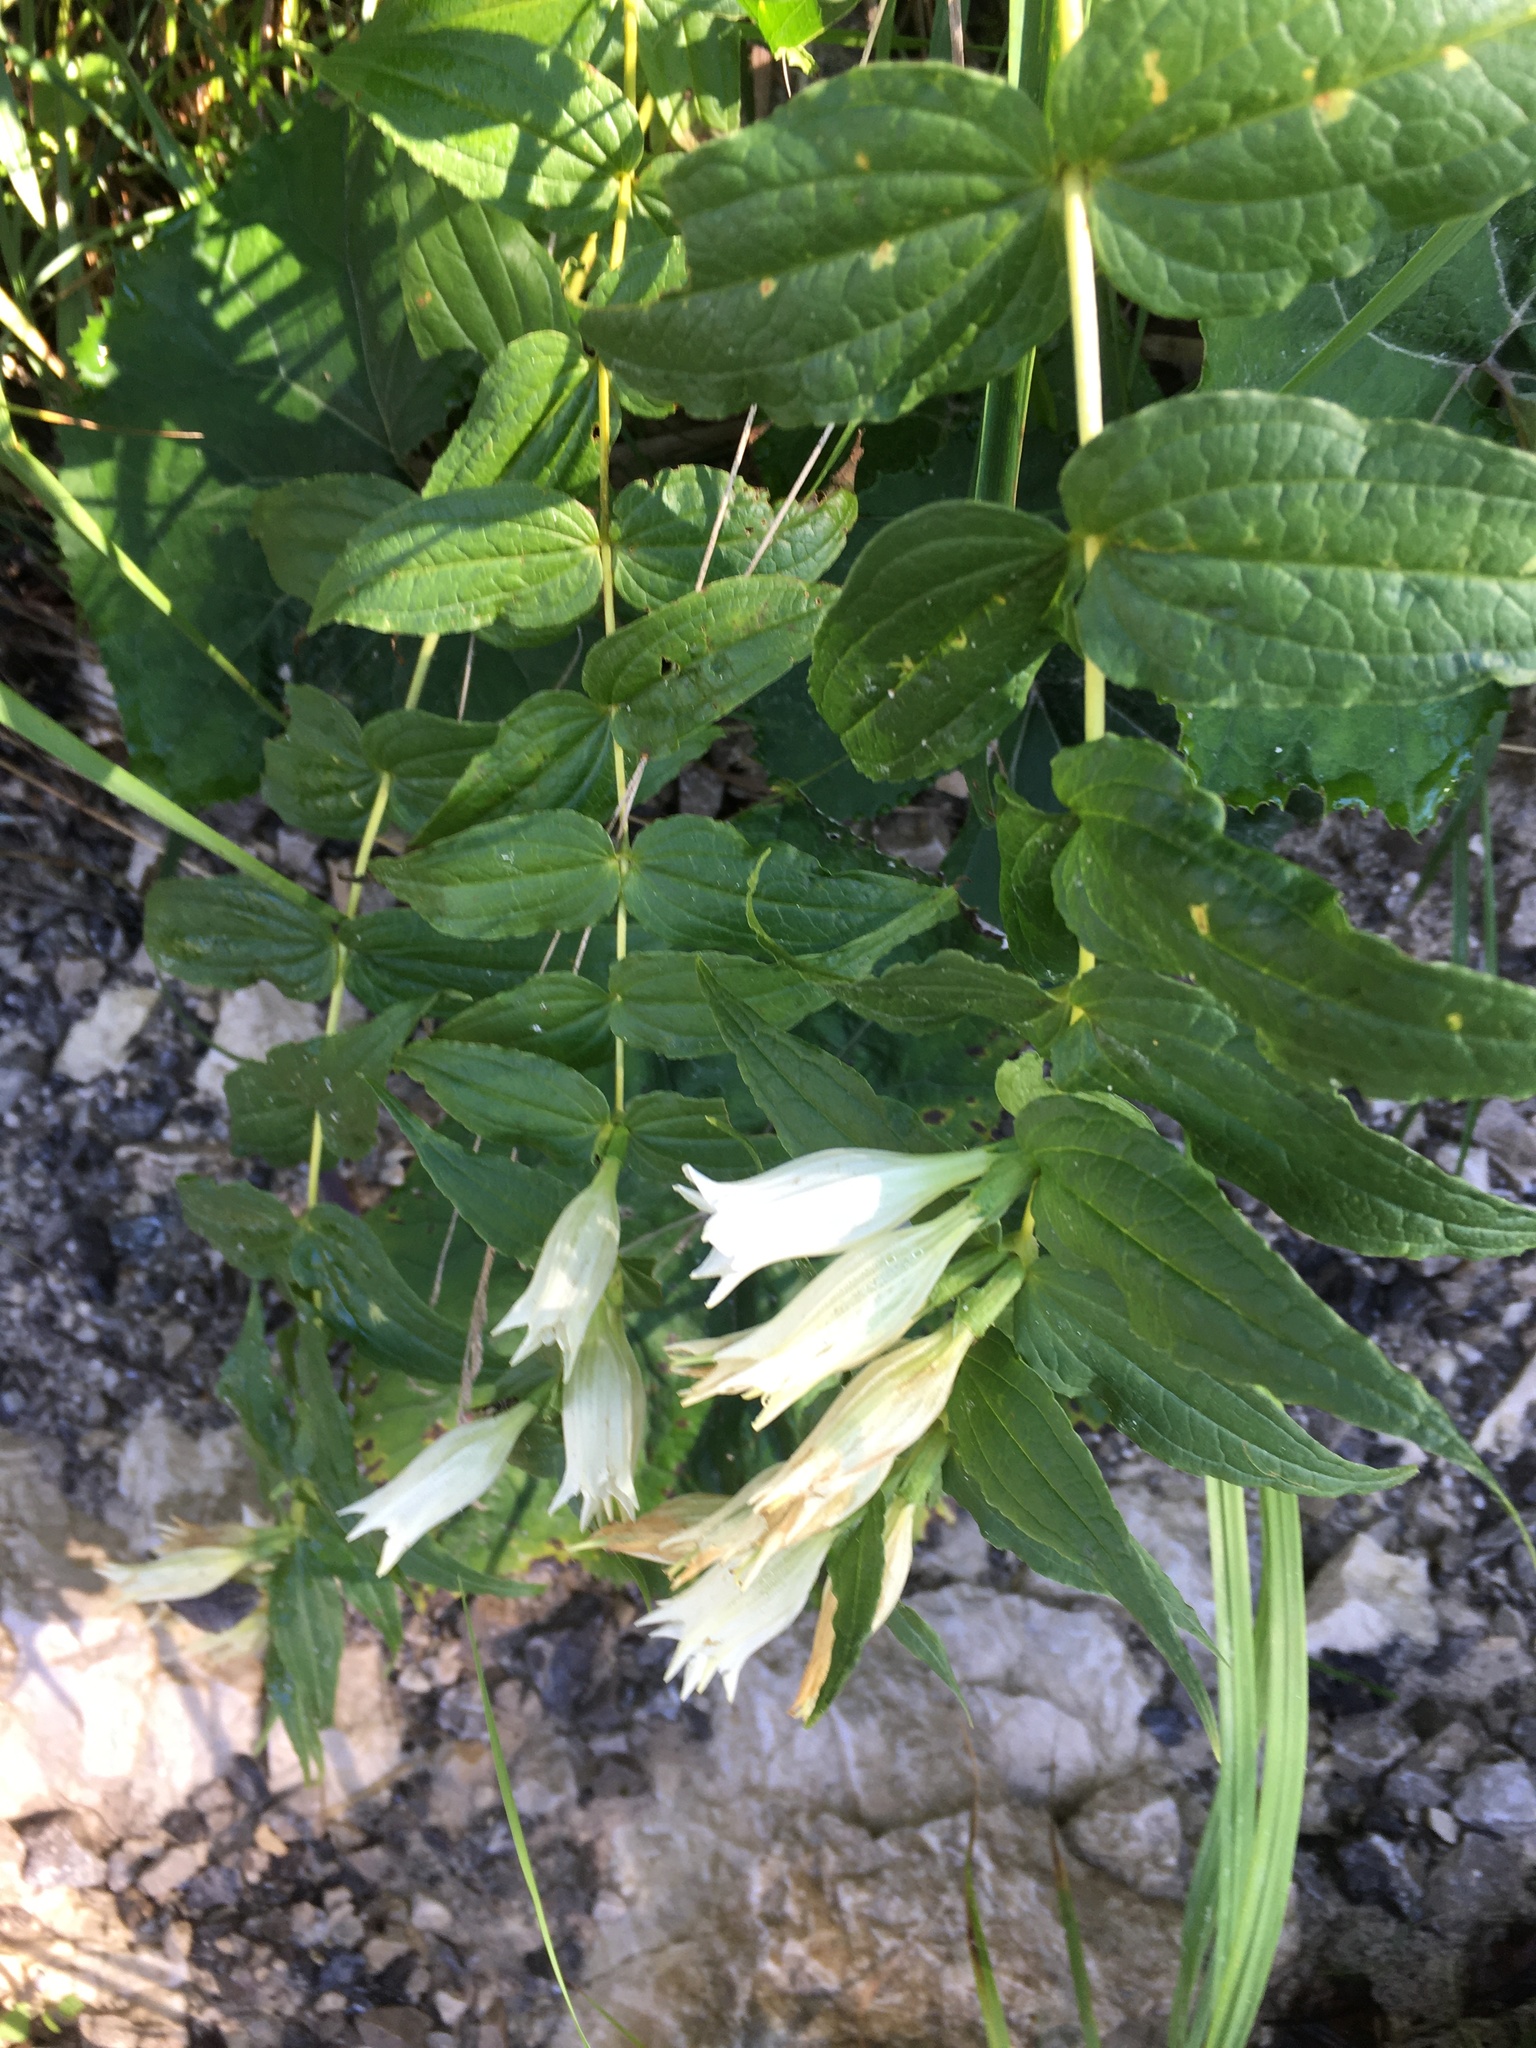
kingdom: Plantae
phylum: Tracheophyta
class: Magnoliopsida
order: Gentianales
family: Gentianaceae
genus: Gentiana
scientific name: Gentiana asclepiadea
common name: Willow gentian
